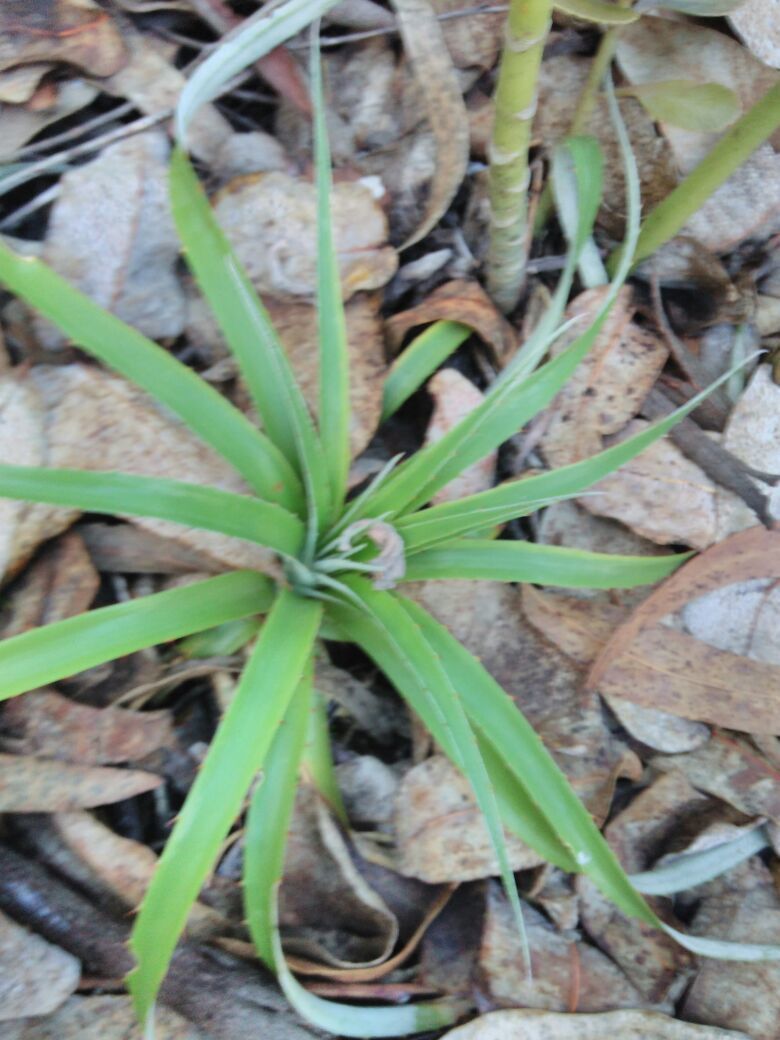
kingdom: Plantae
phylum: Tracheophyta
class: Liliopsida
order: Poales
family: Bromeliaceae
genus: Puya
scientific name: Puya bicolor
